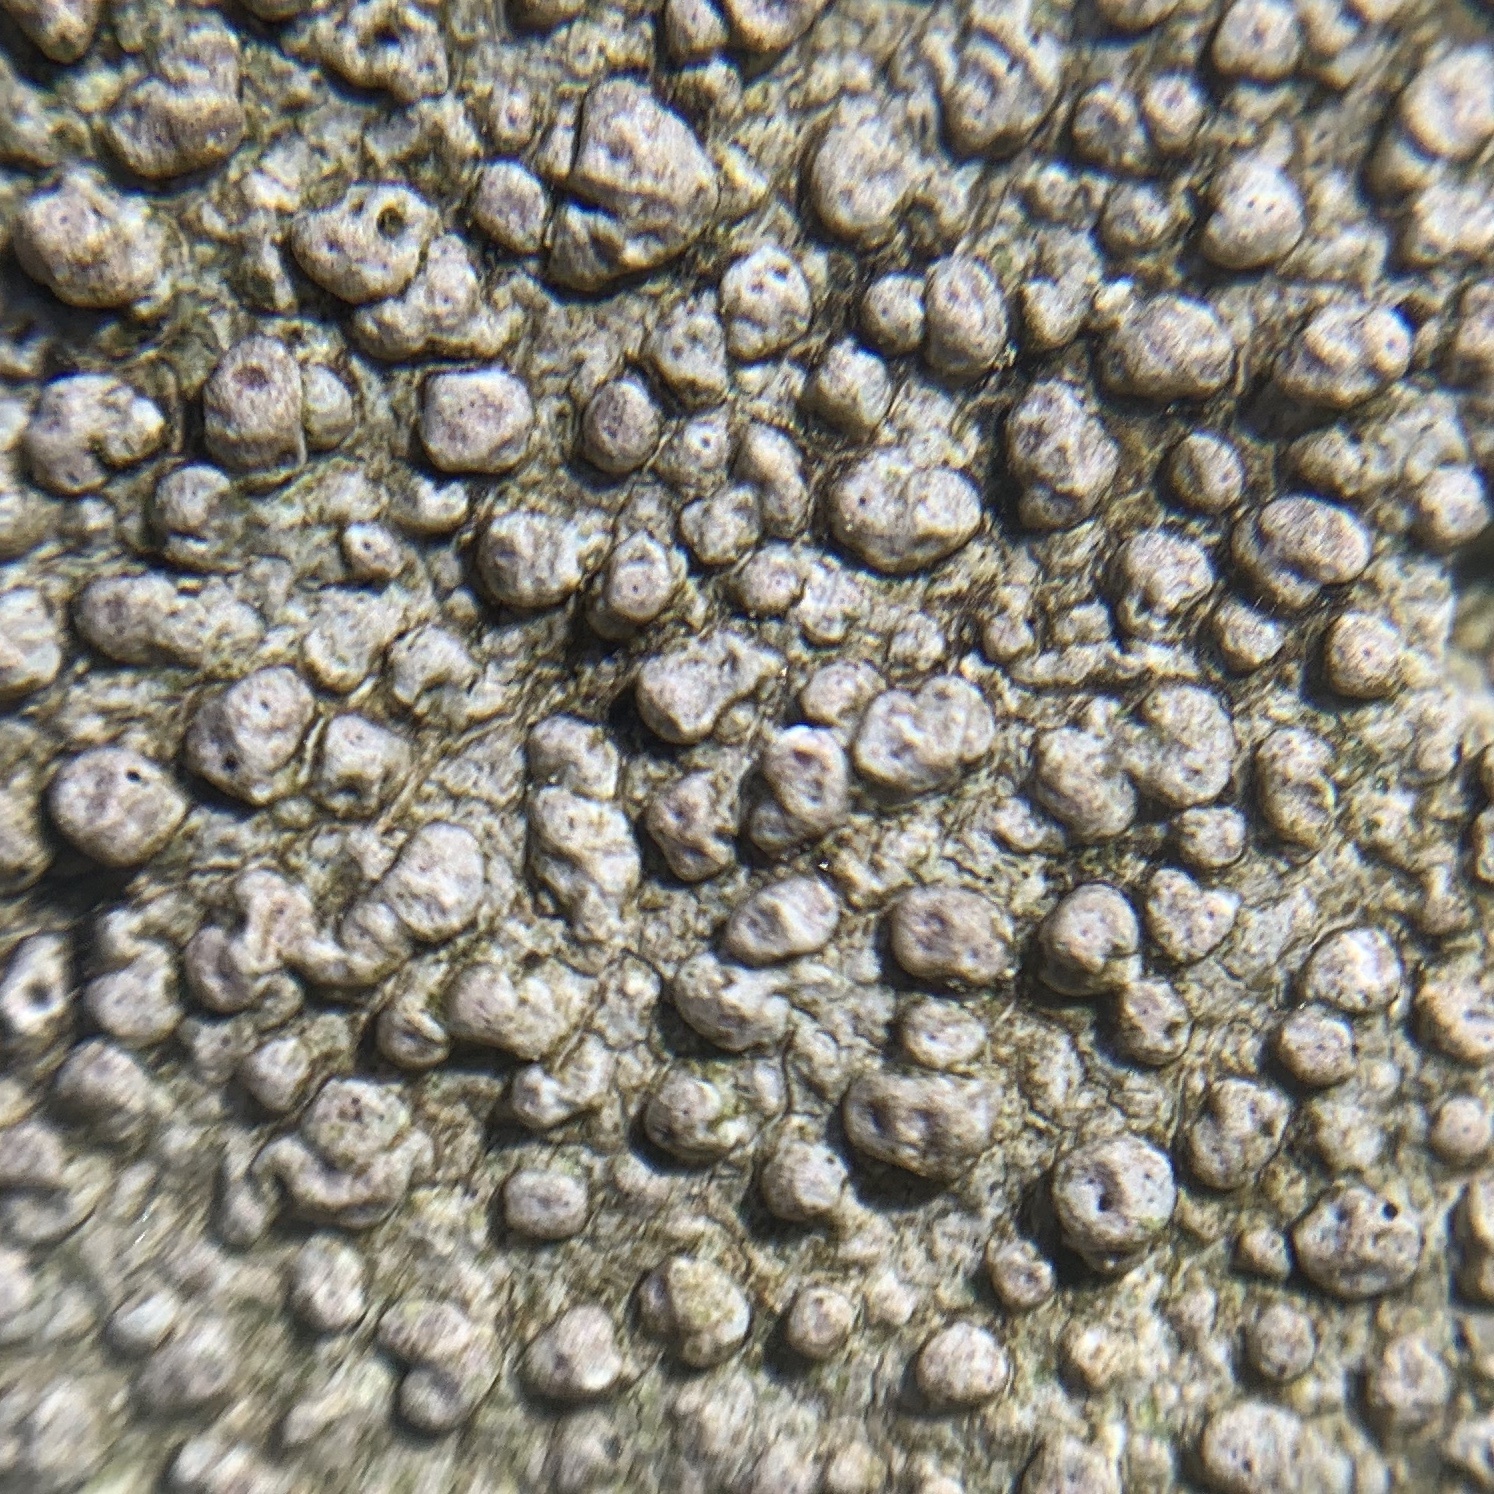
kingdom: Fungi
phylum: Ascomycota
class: Lecanoromycetes
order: Pertusariales
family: Pertusariaceae
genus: Pertusaria
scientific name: Pertusaria plittiana
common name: Rock wart lichen
